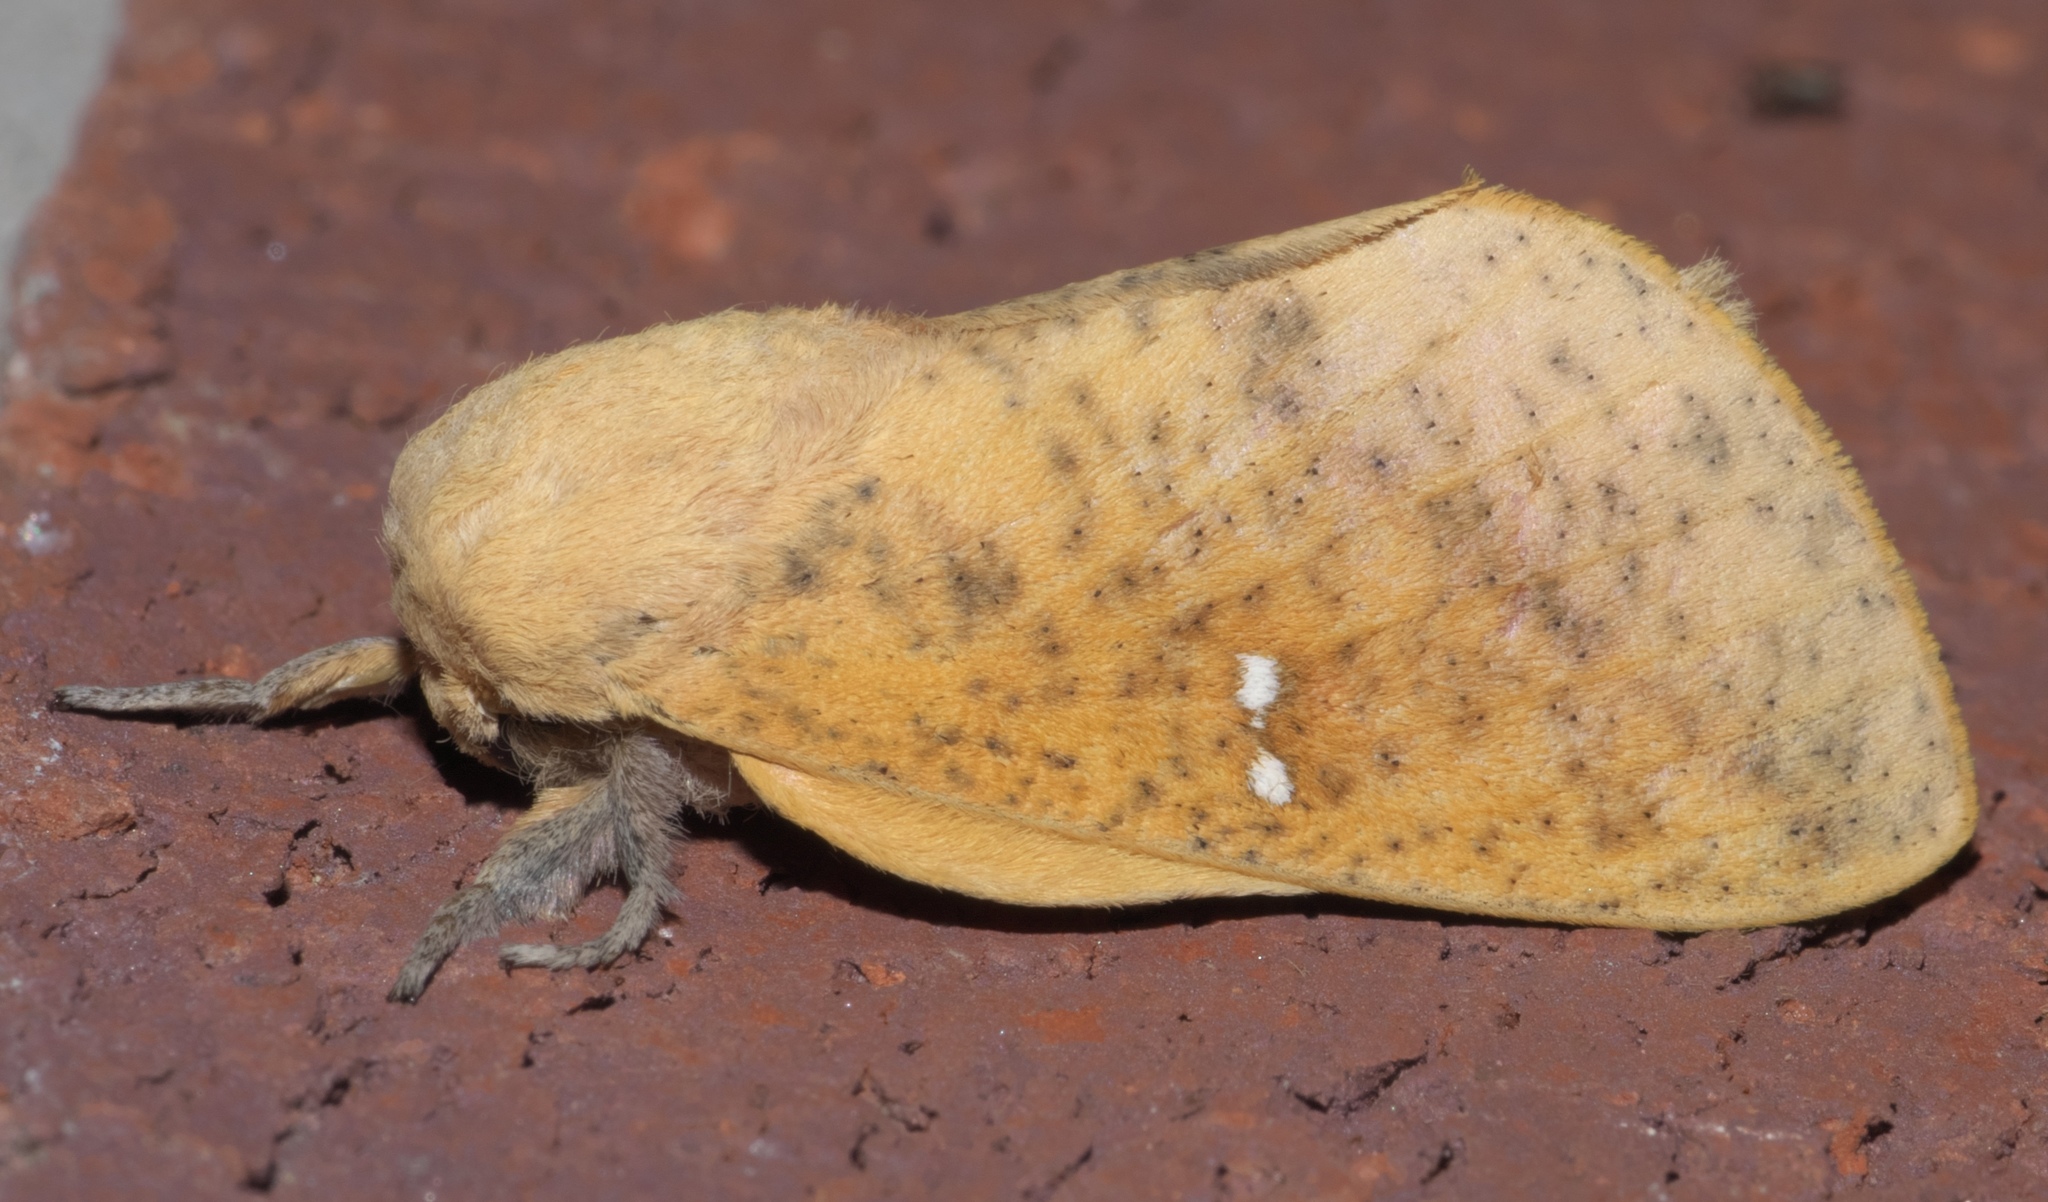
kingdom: Animalia
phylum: Arthropoda
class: Insecta
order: Lepidoptera
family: Saturniidae
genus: Syssphinx
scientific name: Syssphinx bicolor
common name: Honey locust moth
